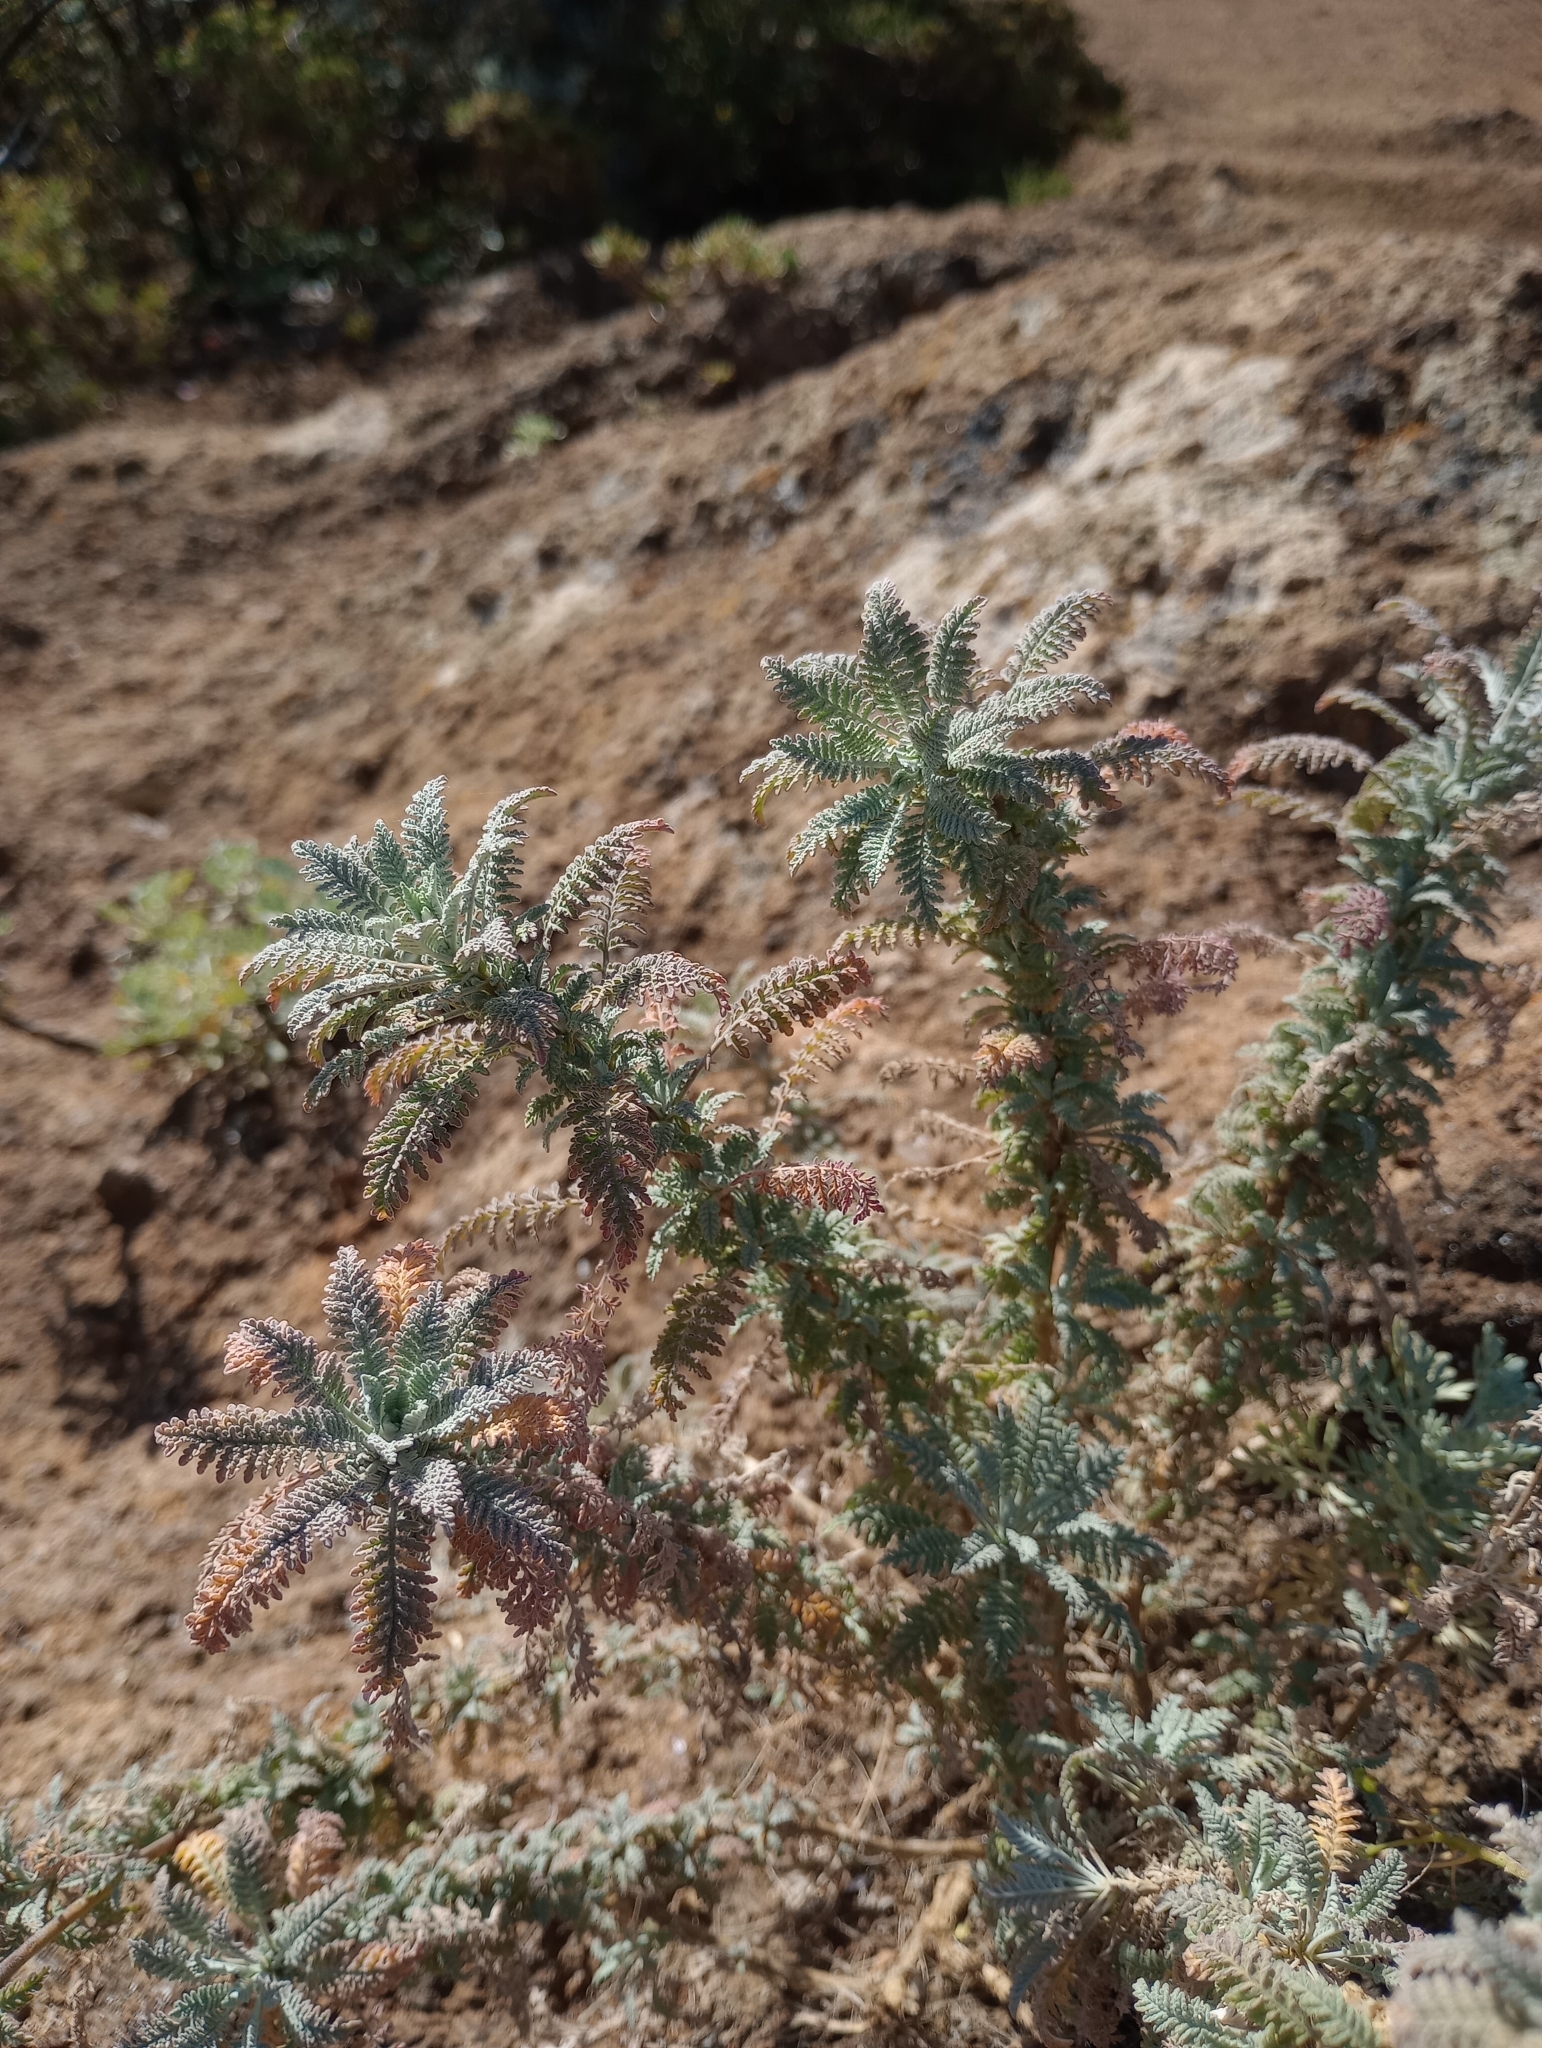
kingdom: Plantae
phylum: Tracheophyta
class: Magnoliopsida
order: Brassicales
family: Brassicaceae
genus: Descurainia
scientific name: Descurainia millefolia
